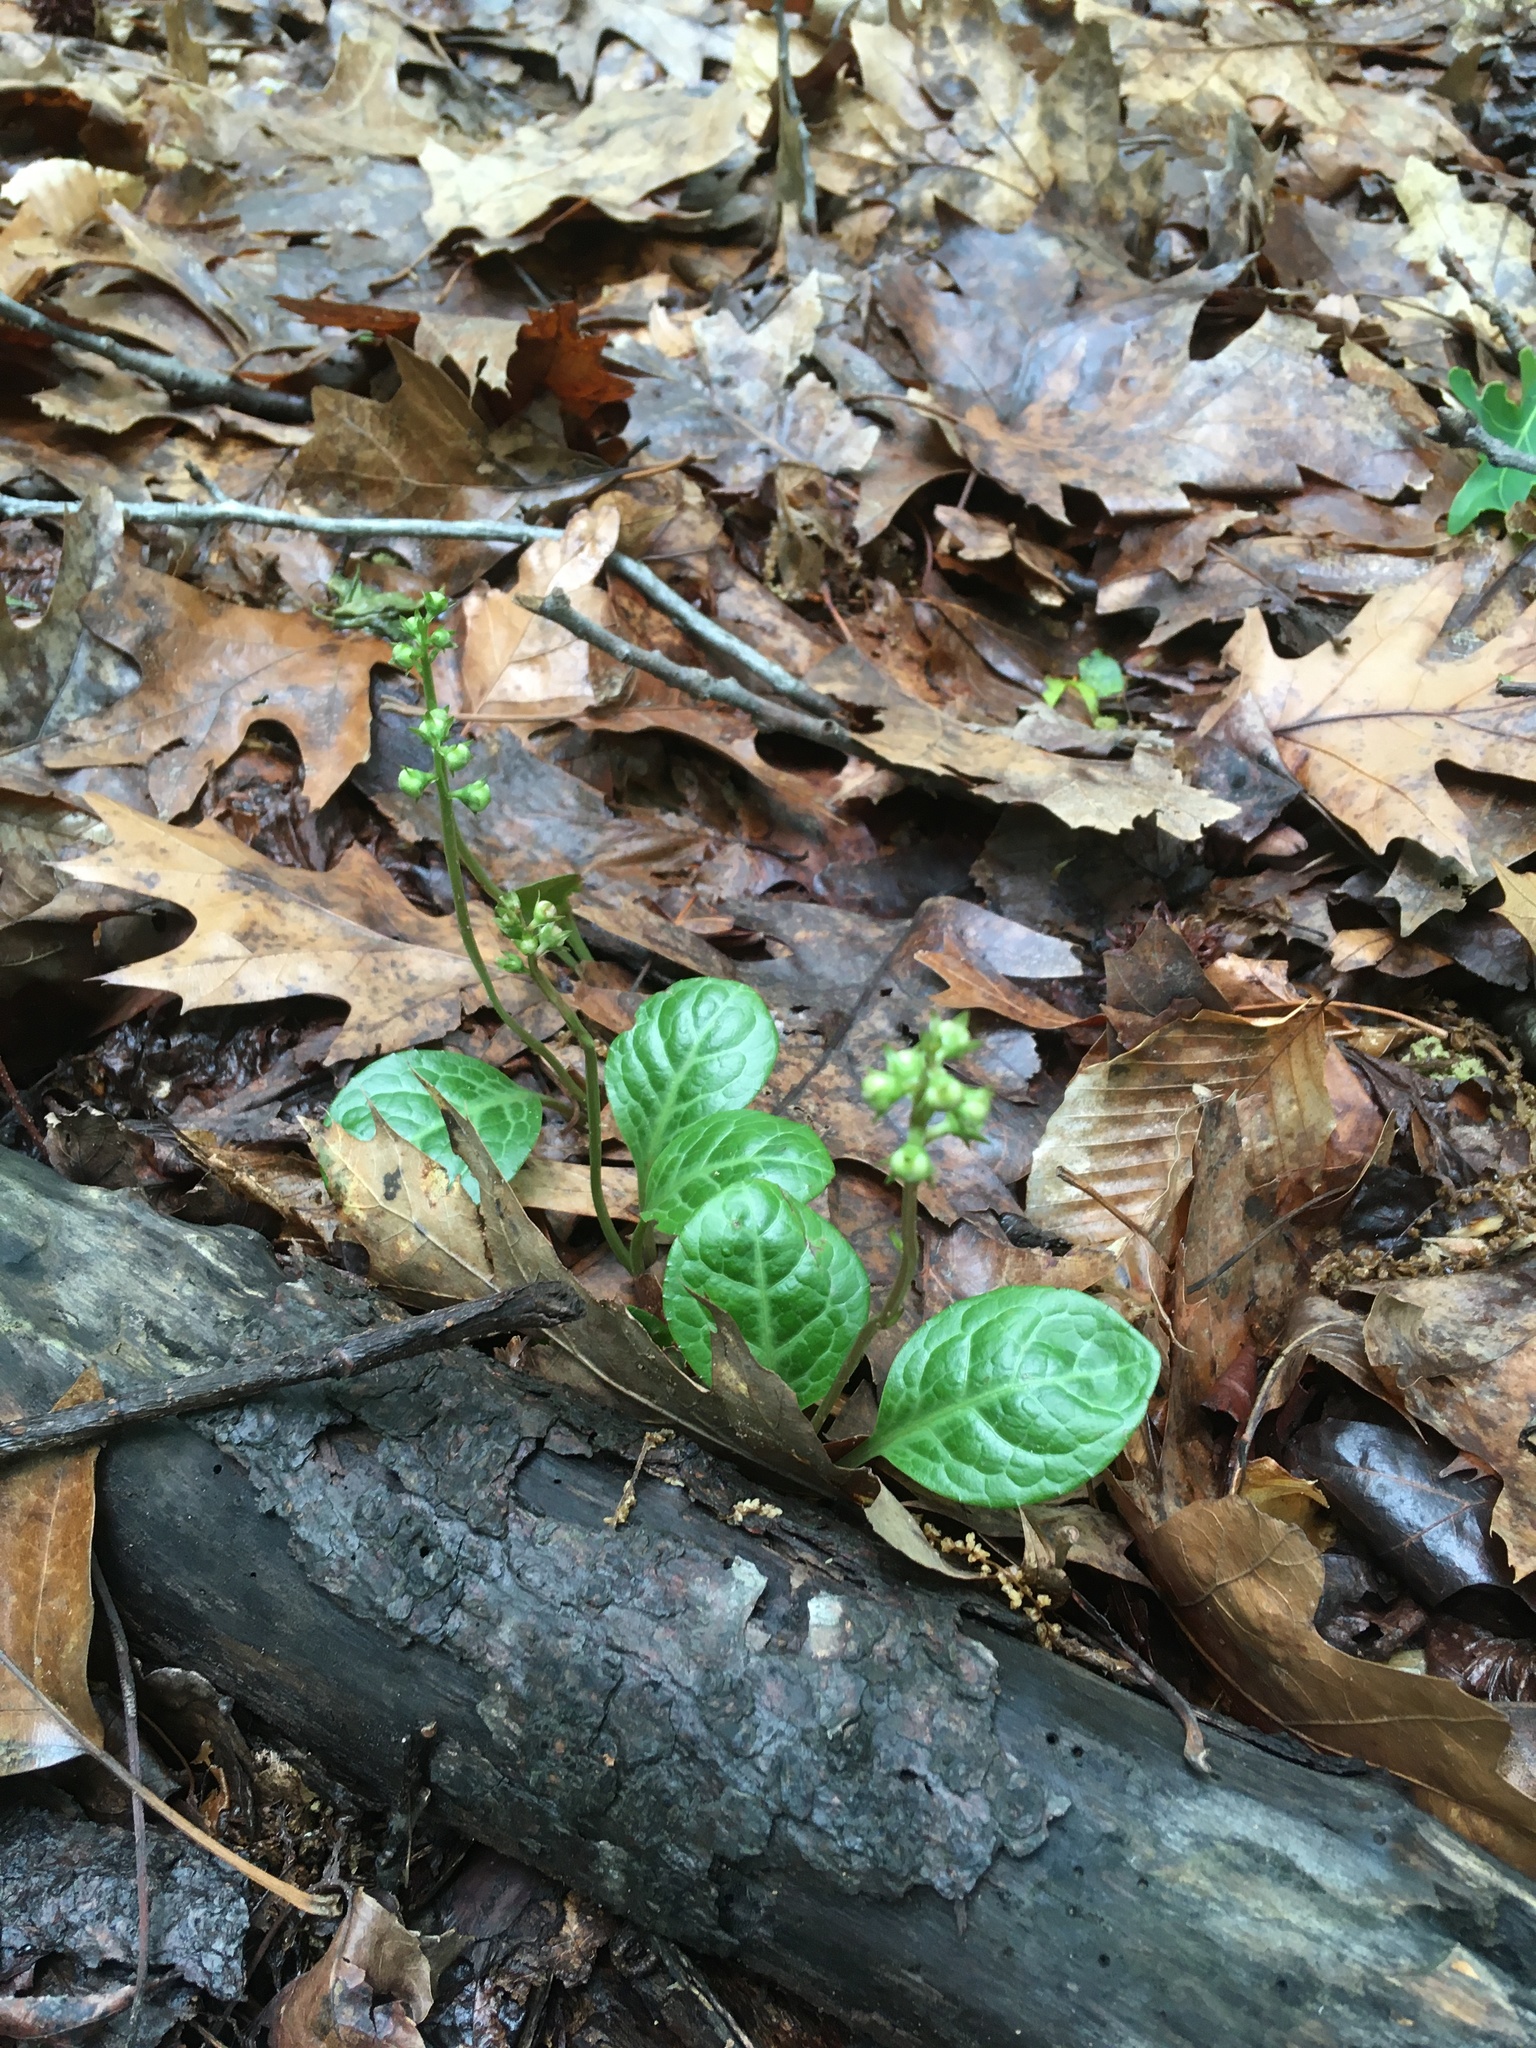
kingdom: Plantae
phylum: Tracheophyta
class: Magnoliopsida
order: Ericales
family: Ericaceae
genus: Pyrola
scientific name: Pyrola americana
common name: American wintergreen
